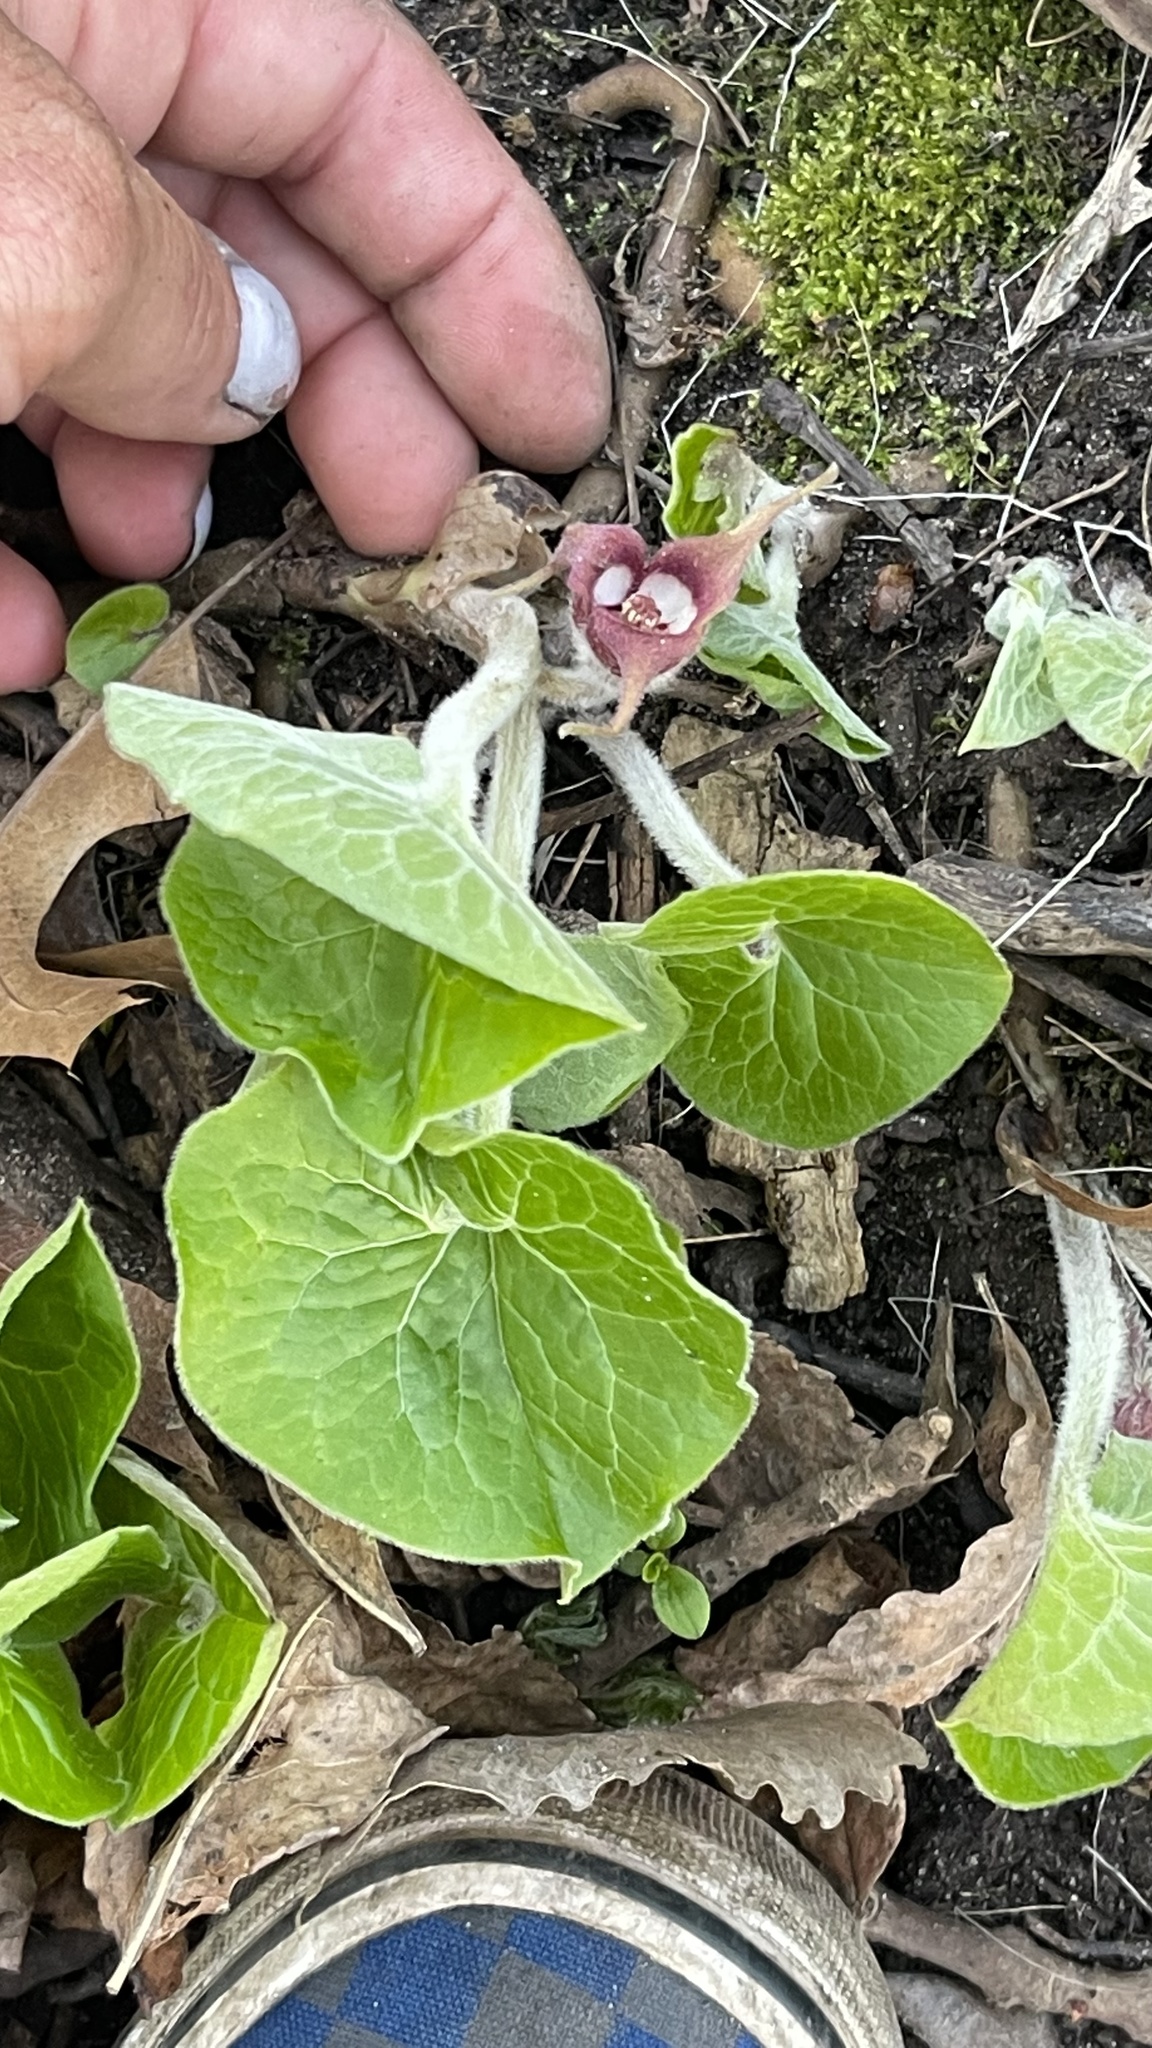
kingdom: Plantae
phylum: Tracheophyta
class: Magnoliopsida
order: Piperales
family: Aristolochiaceae
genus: Asarum
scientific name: Asarum canadense
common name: Wild ginger
